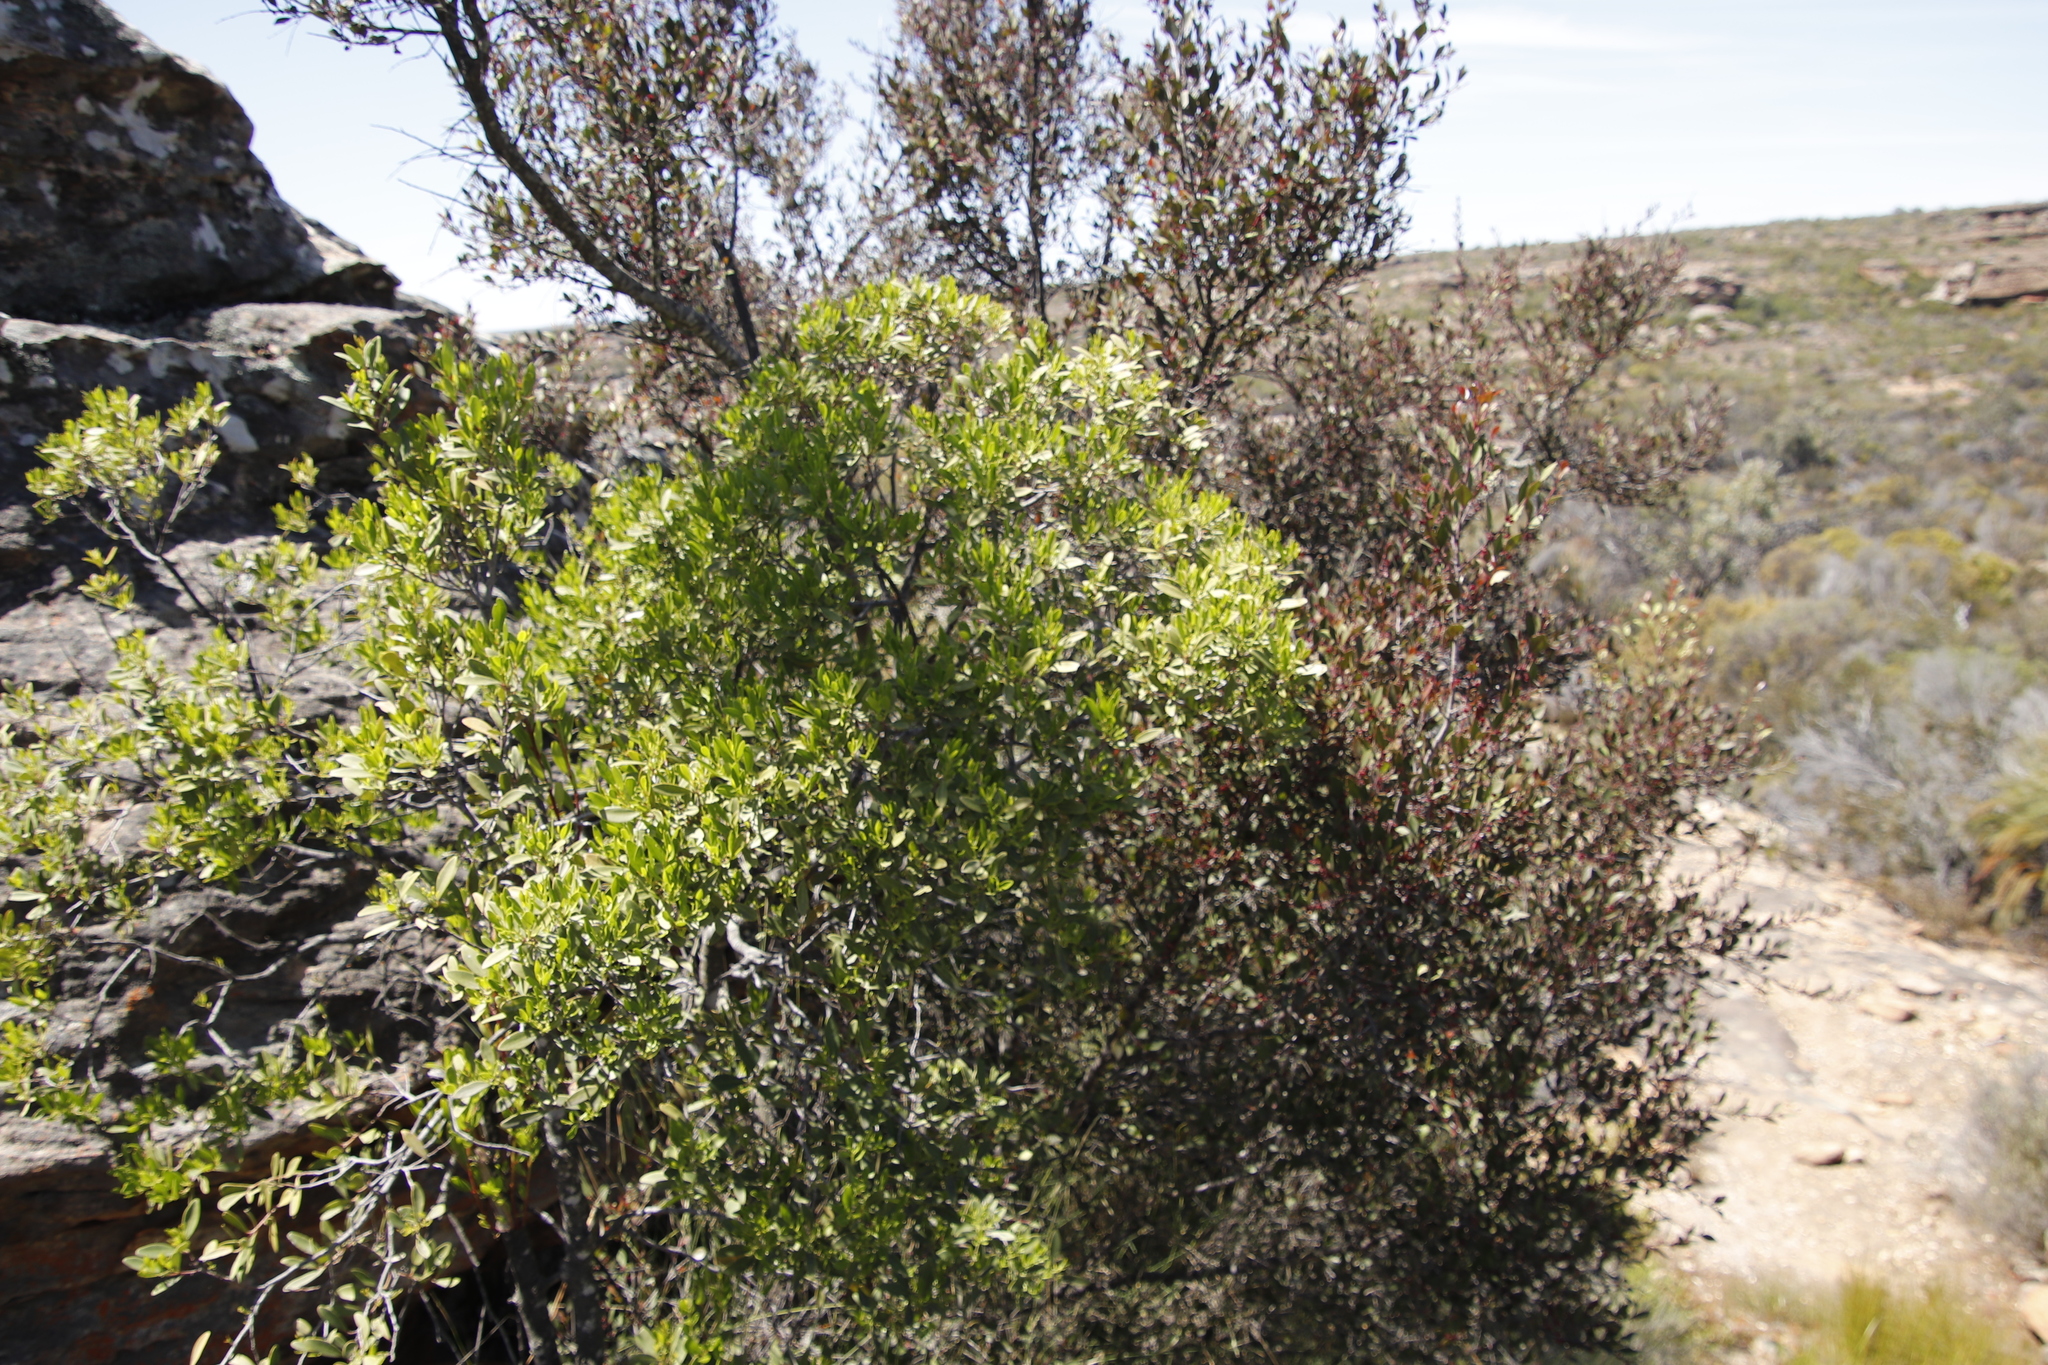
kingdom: Plantae
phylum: Tracheophyta
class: Magnoliopsida
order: Celastrales
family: Celastraceae
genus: Gymnosporia
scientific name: Gymnosporia acuminata
